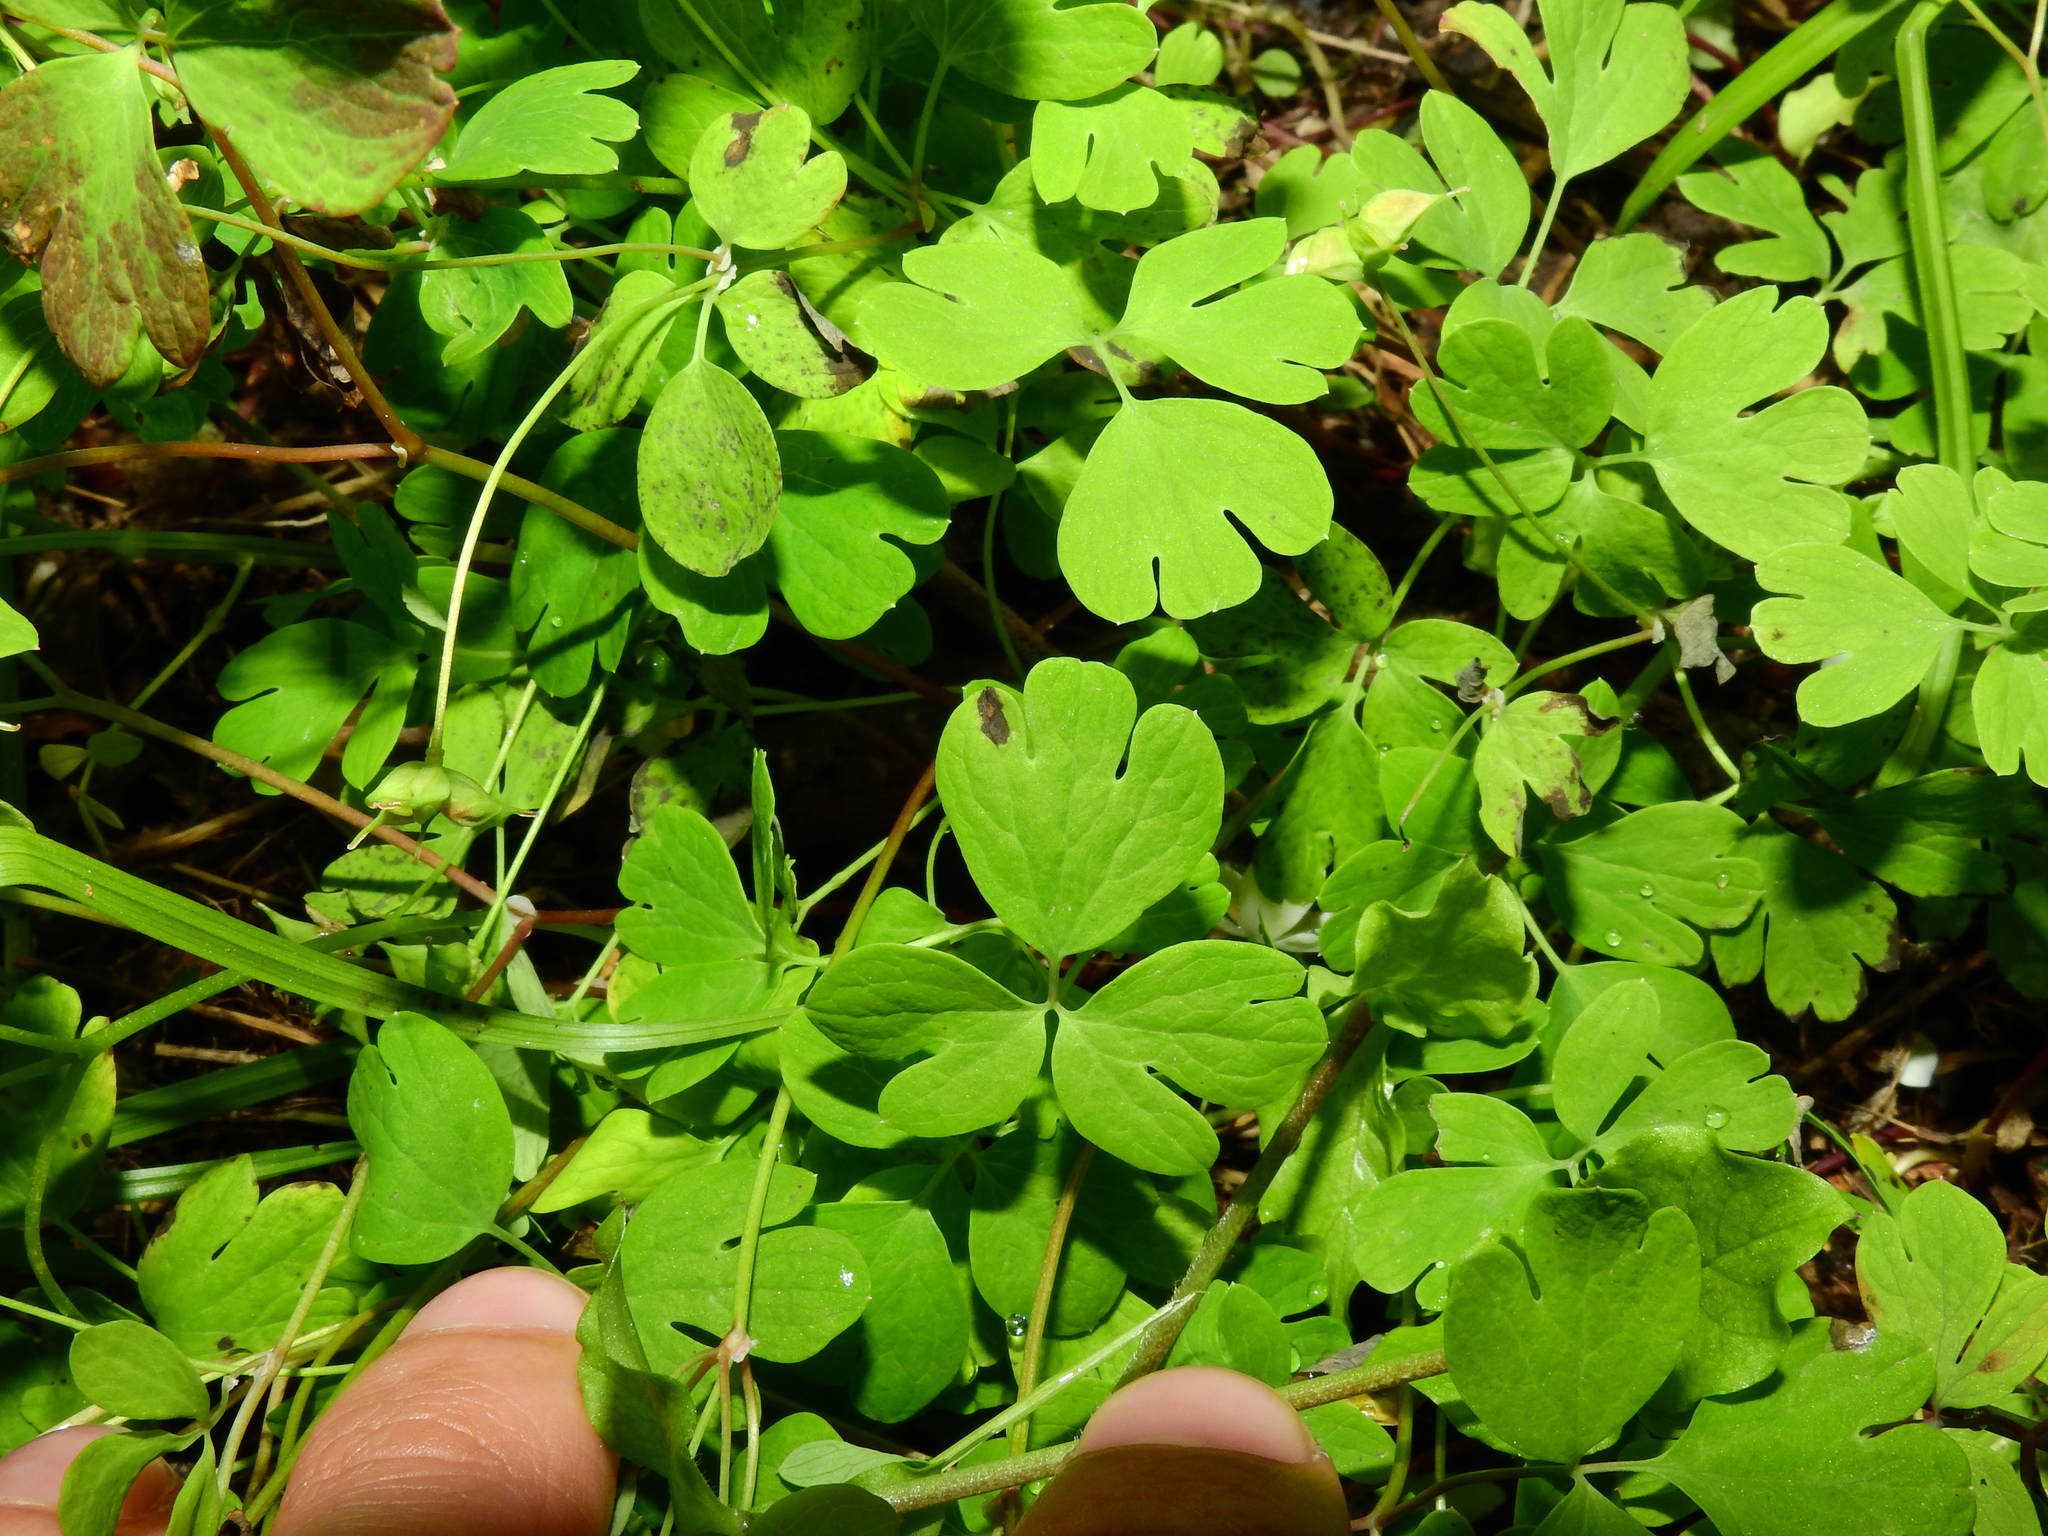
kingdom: Plantae
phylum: Tracheophyta
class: Magnoliopsida
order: Ranunculales
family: Ranunculaceae
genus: Enemion
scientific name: Enemion biternatum
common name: Eastern false rue-anemone
